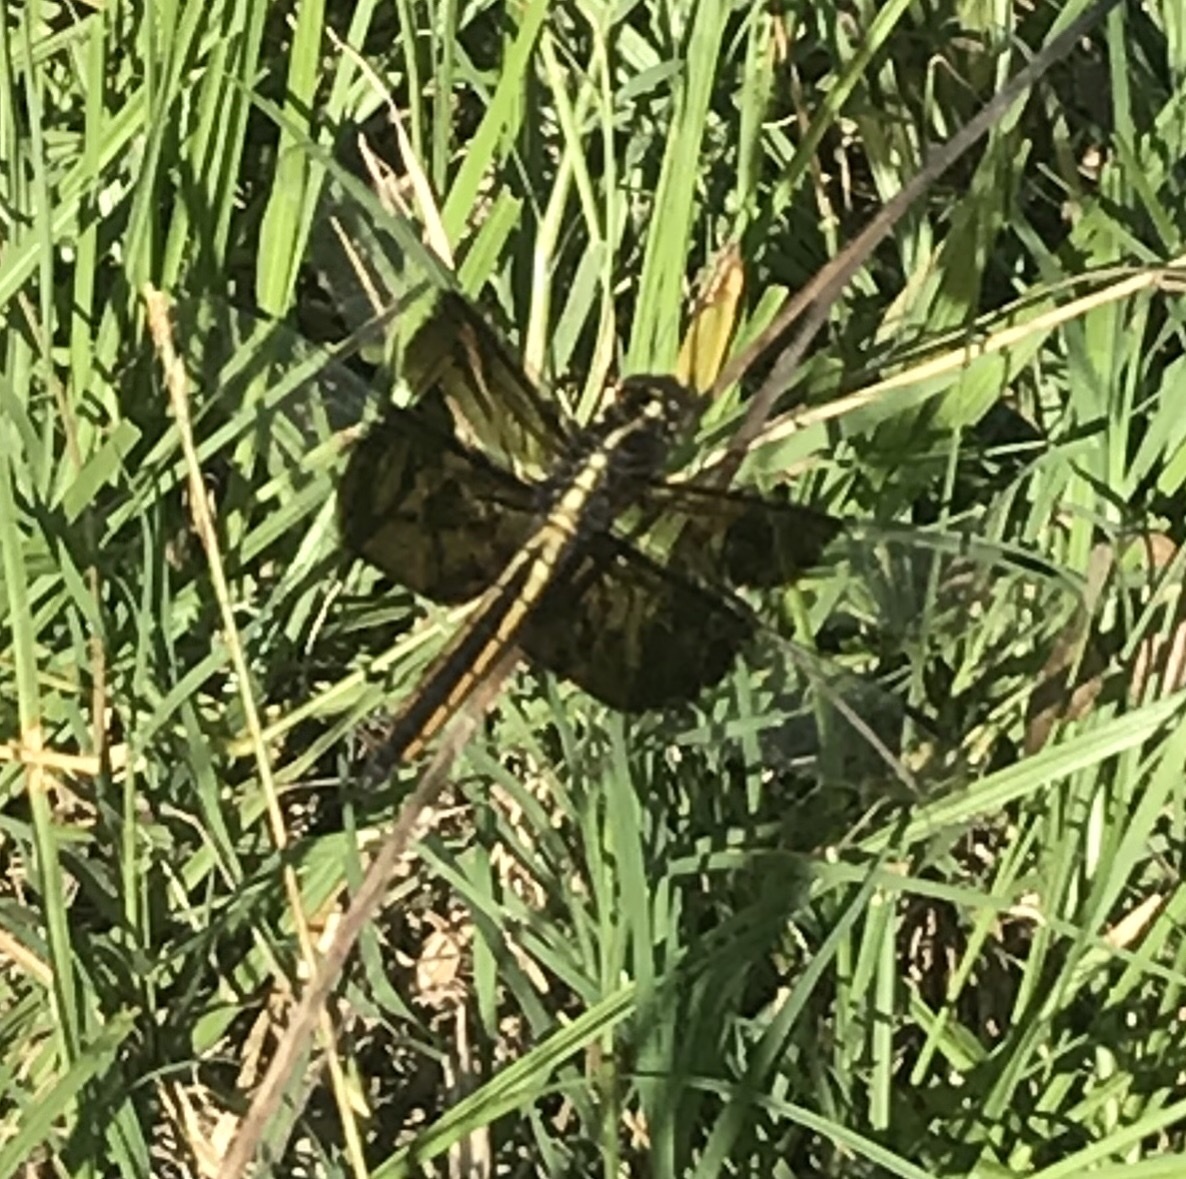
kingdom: Animalia
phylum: Arthropoda
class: Insecta
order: Odonata
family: Libellulidae
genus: Libellula
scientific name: Libellula luctuosa
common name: Widow skimmer
